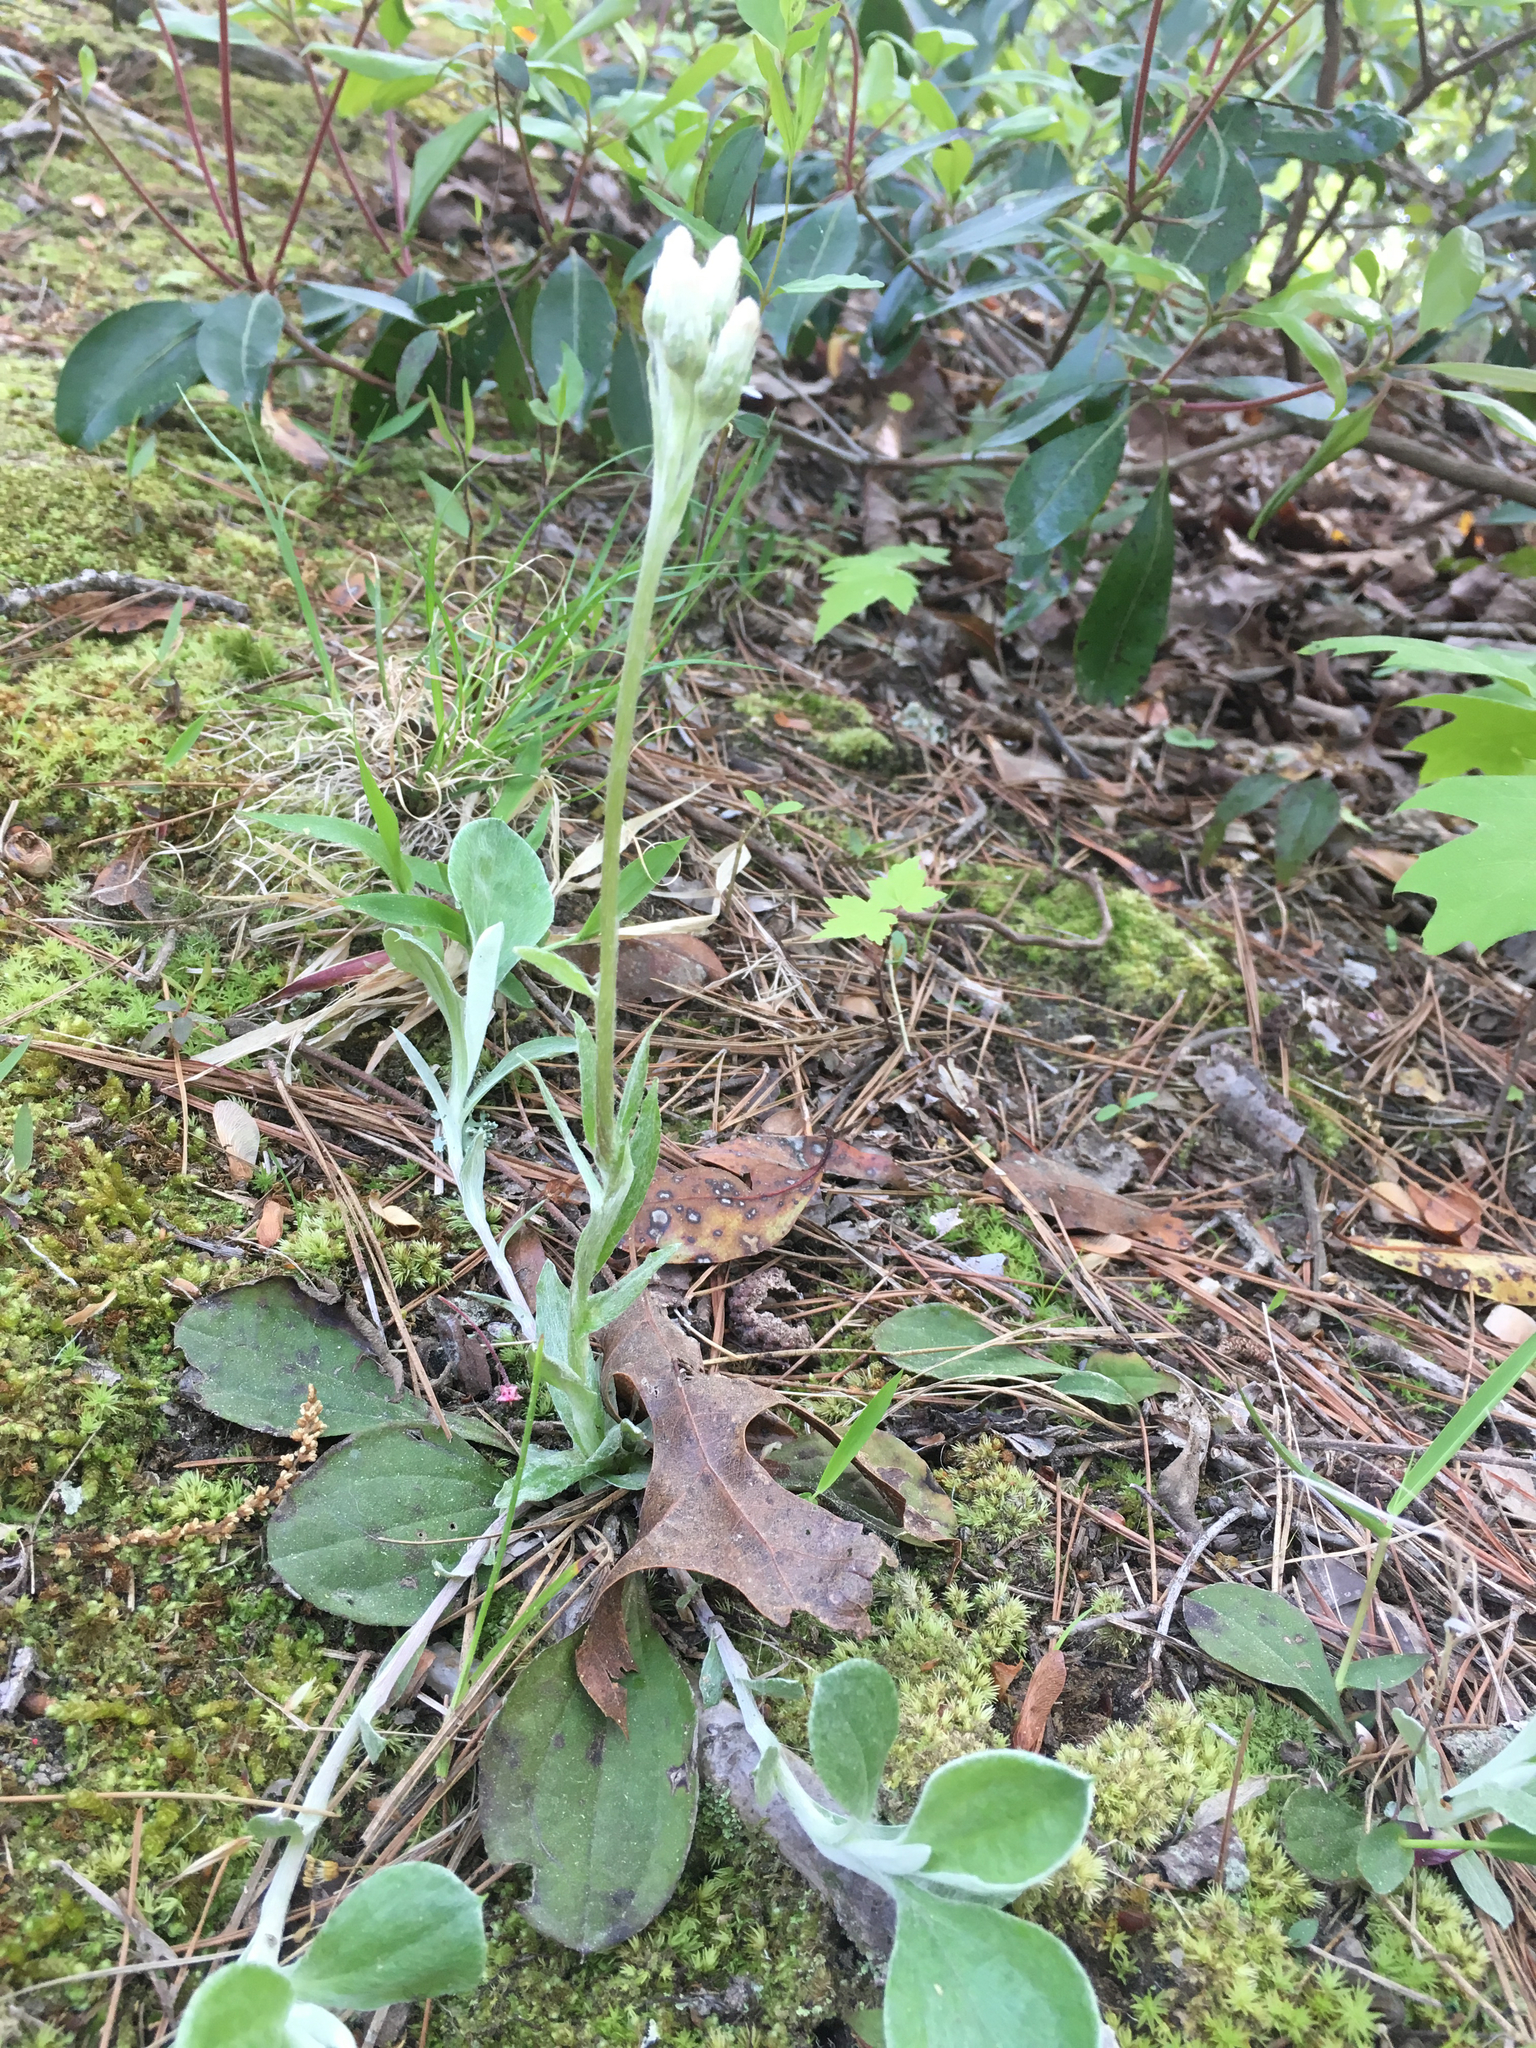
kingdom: Plantae
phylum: Tracheophyta
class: Magnoliopsida
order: Asterales
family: Asteraceae
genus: Antennaria
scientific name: Antennaria plantaginifolia
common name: Plantain-leaved pussytoes
